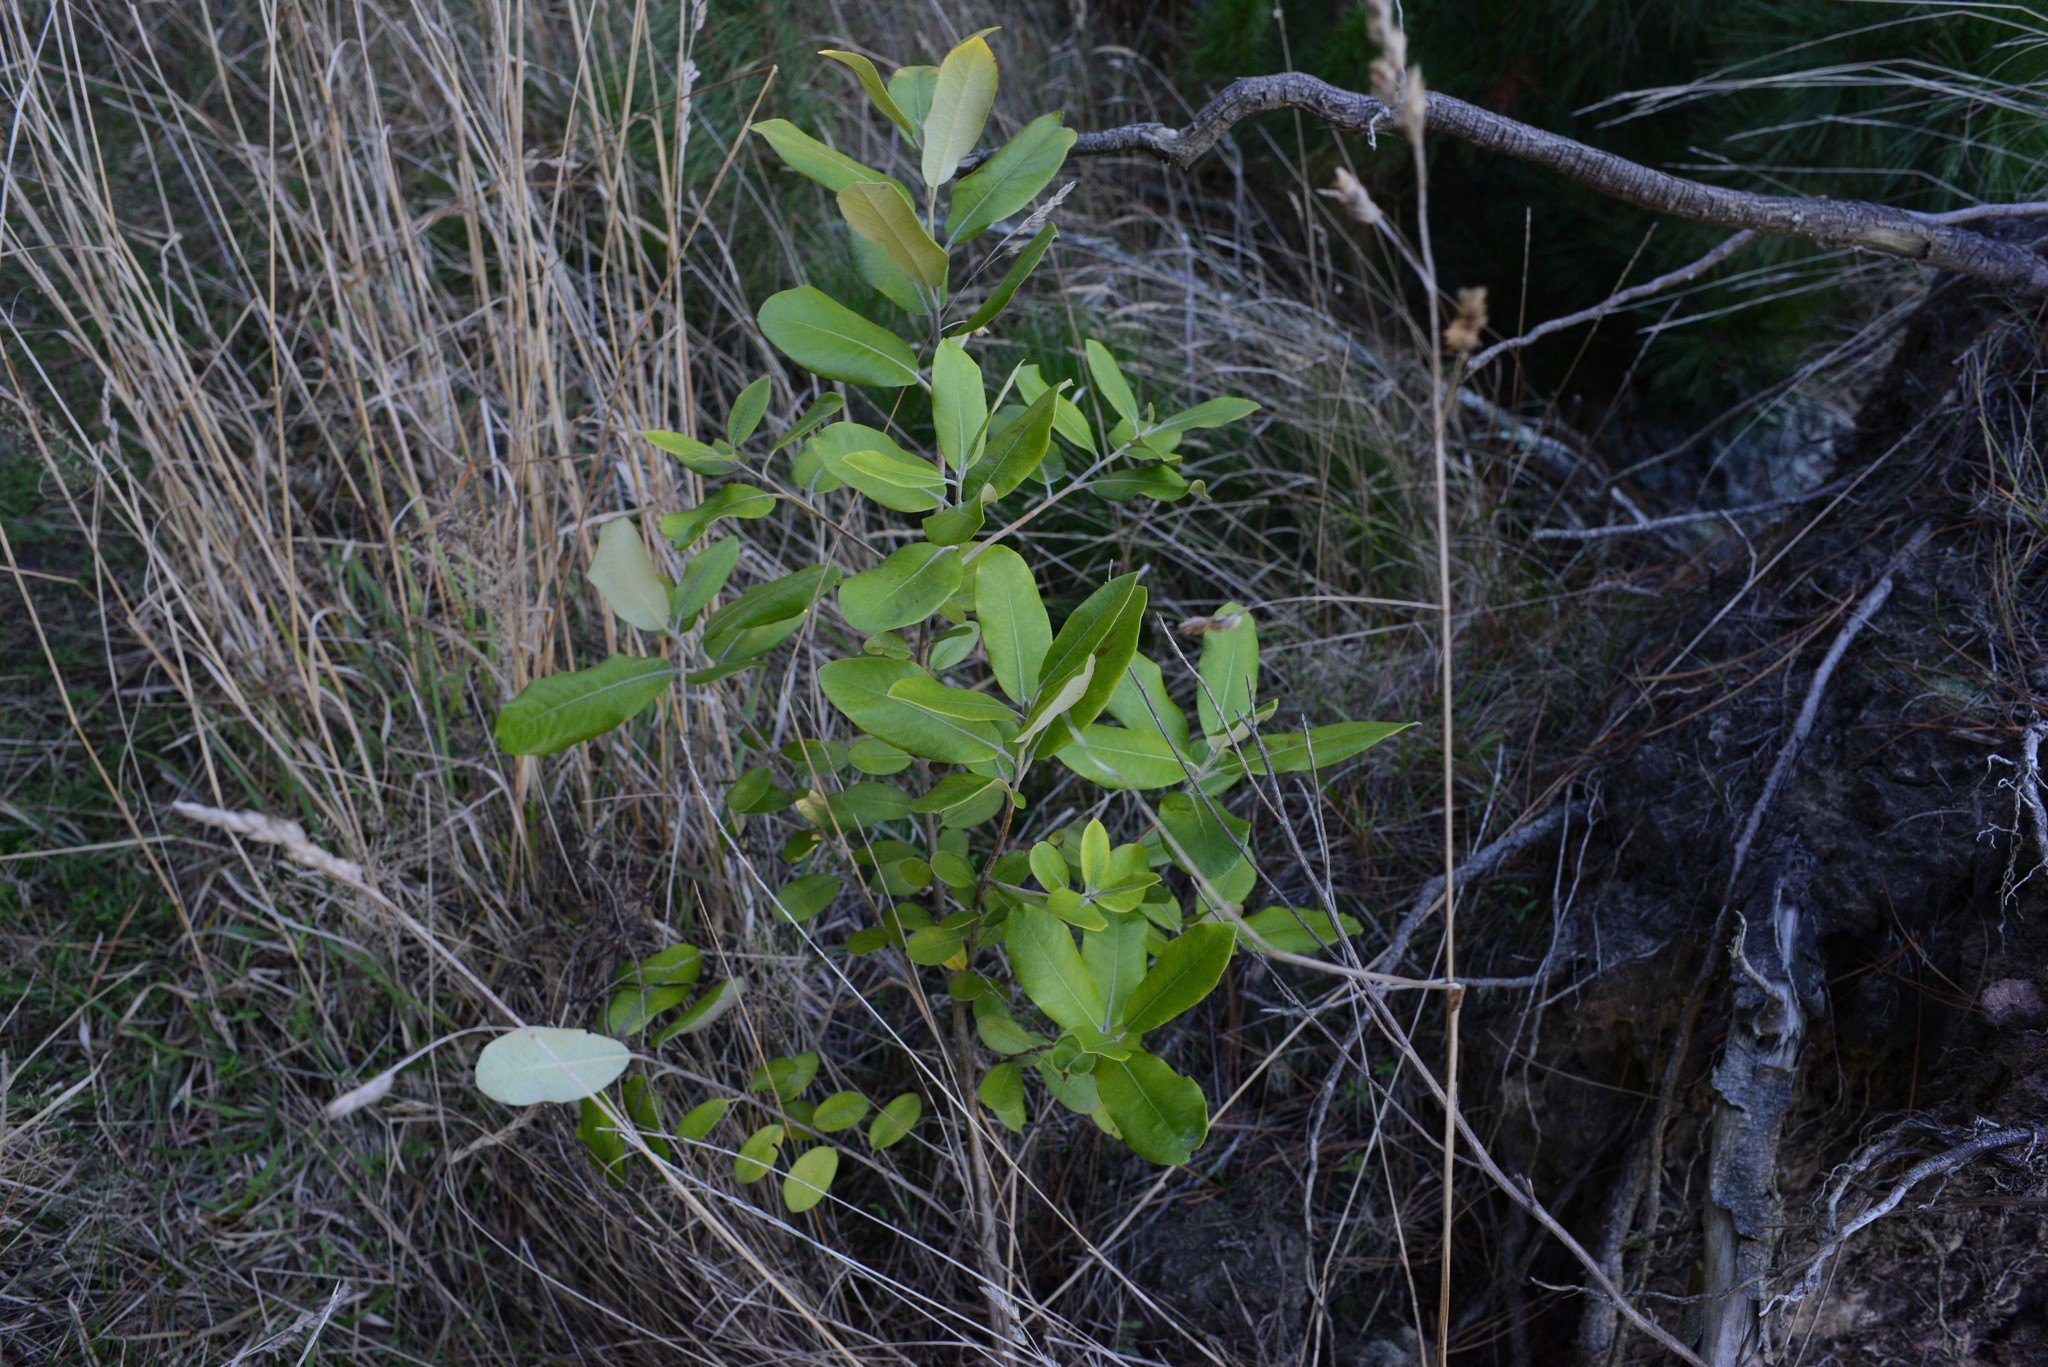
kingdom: Plantae
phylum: Tracheophyta
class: Magnoliopsida
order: Apiales
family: Pittosporaceae
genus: Pittosporum
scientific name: Pittosporum ralphii
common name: Ralph's desertwillow
